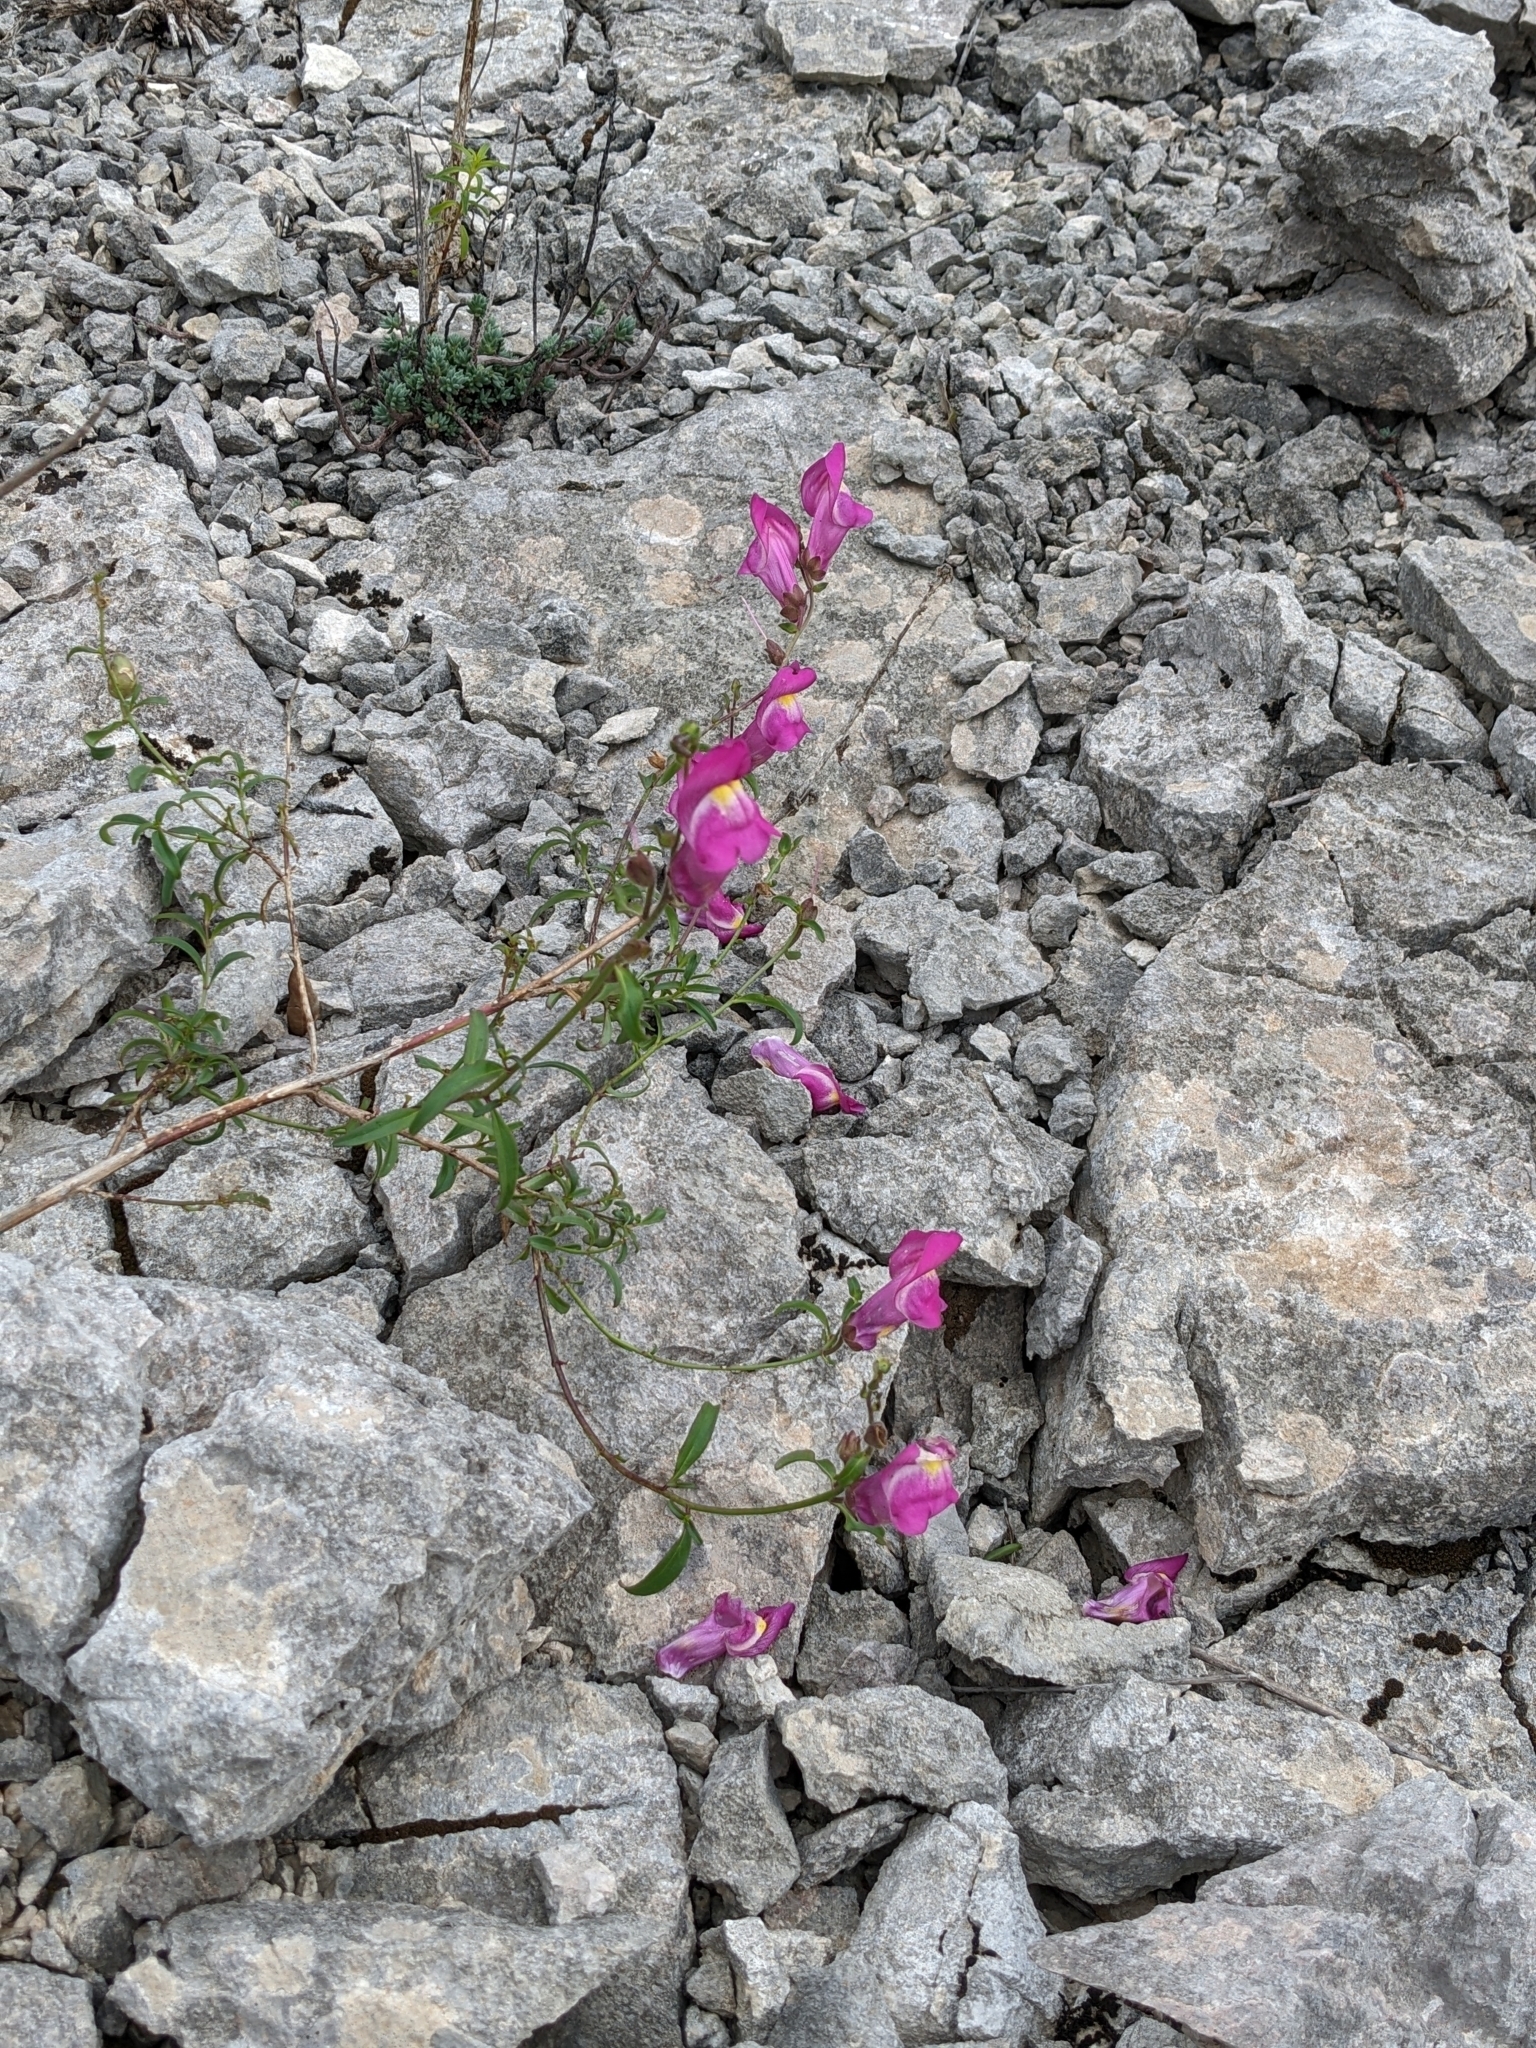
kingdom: Plantae
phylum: Tracheophyta
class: Magnoliopsida
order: Lamiales
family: Plantaginaceae
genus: Antirrhinum
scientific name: Antirrhinum majus
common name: Snapdragon
